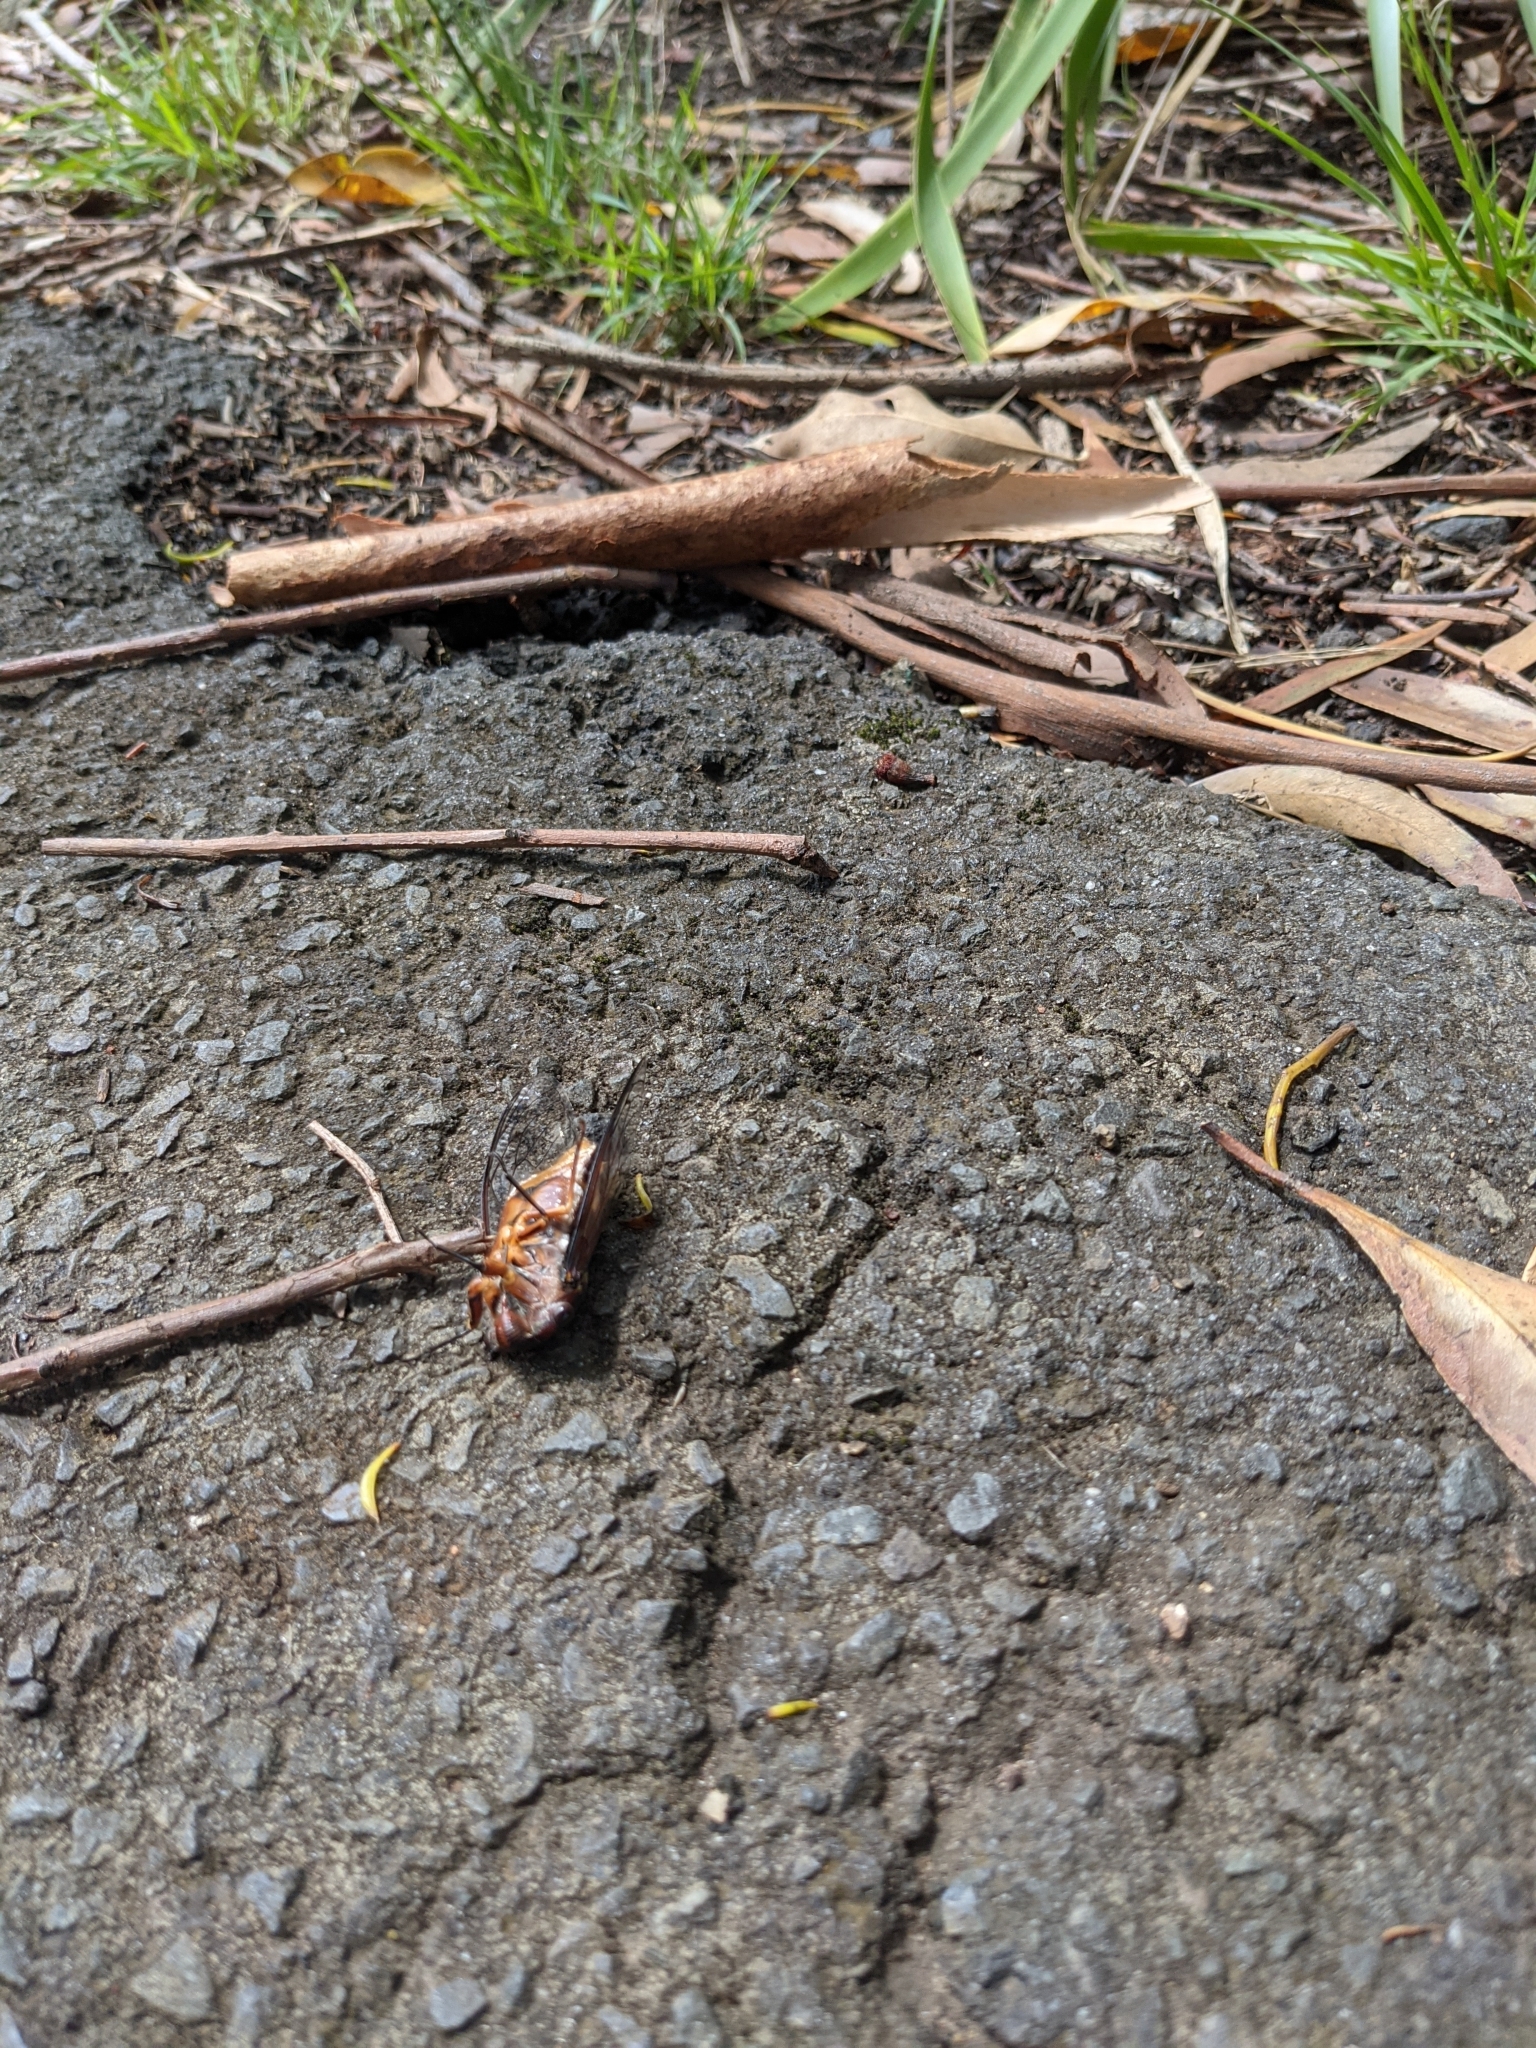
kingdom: Animalia
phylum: Arthropoda
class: Insecta
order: Hemiptera
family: Cicadidae
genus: Psaltoda
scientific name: Psaltoda plaga
